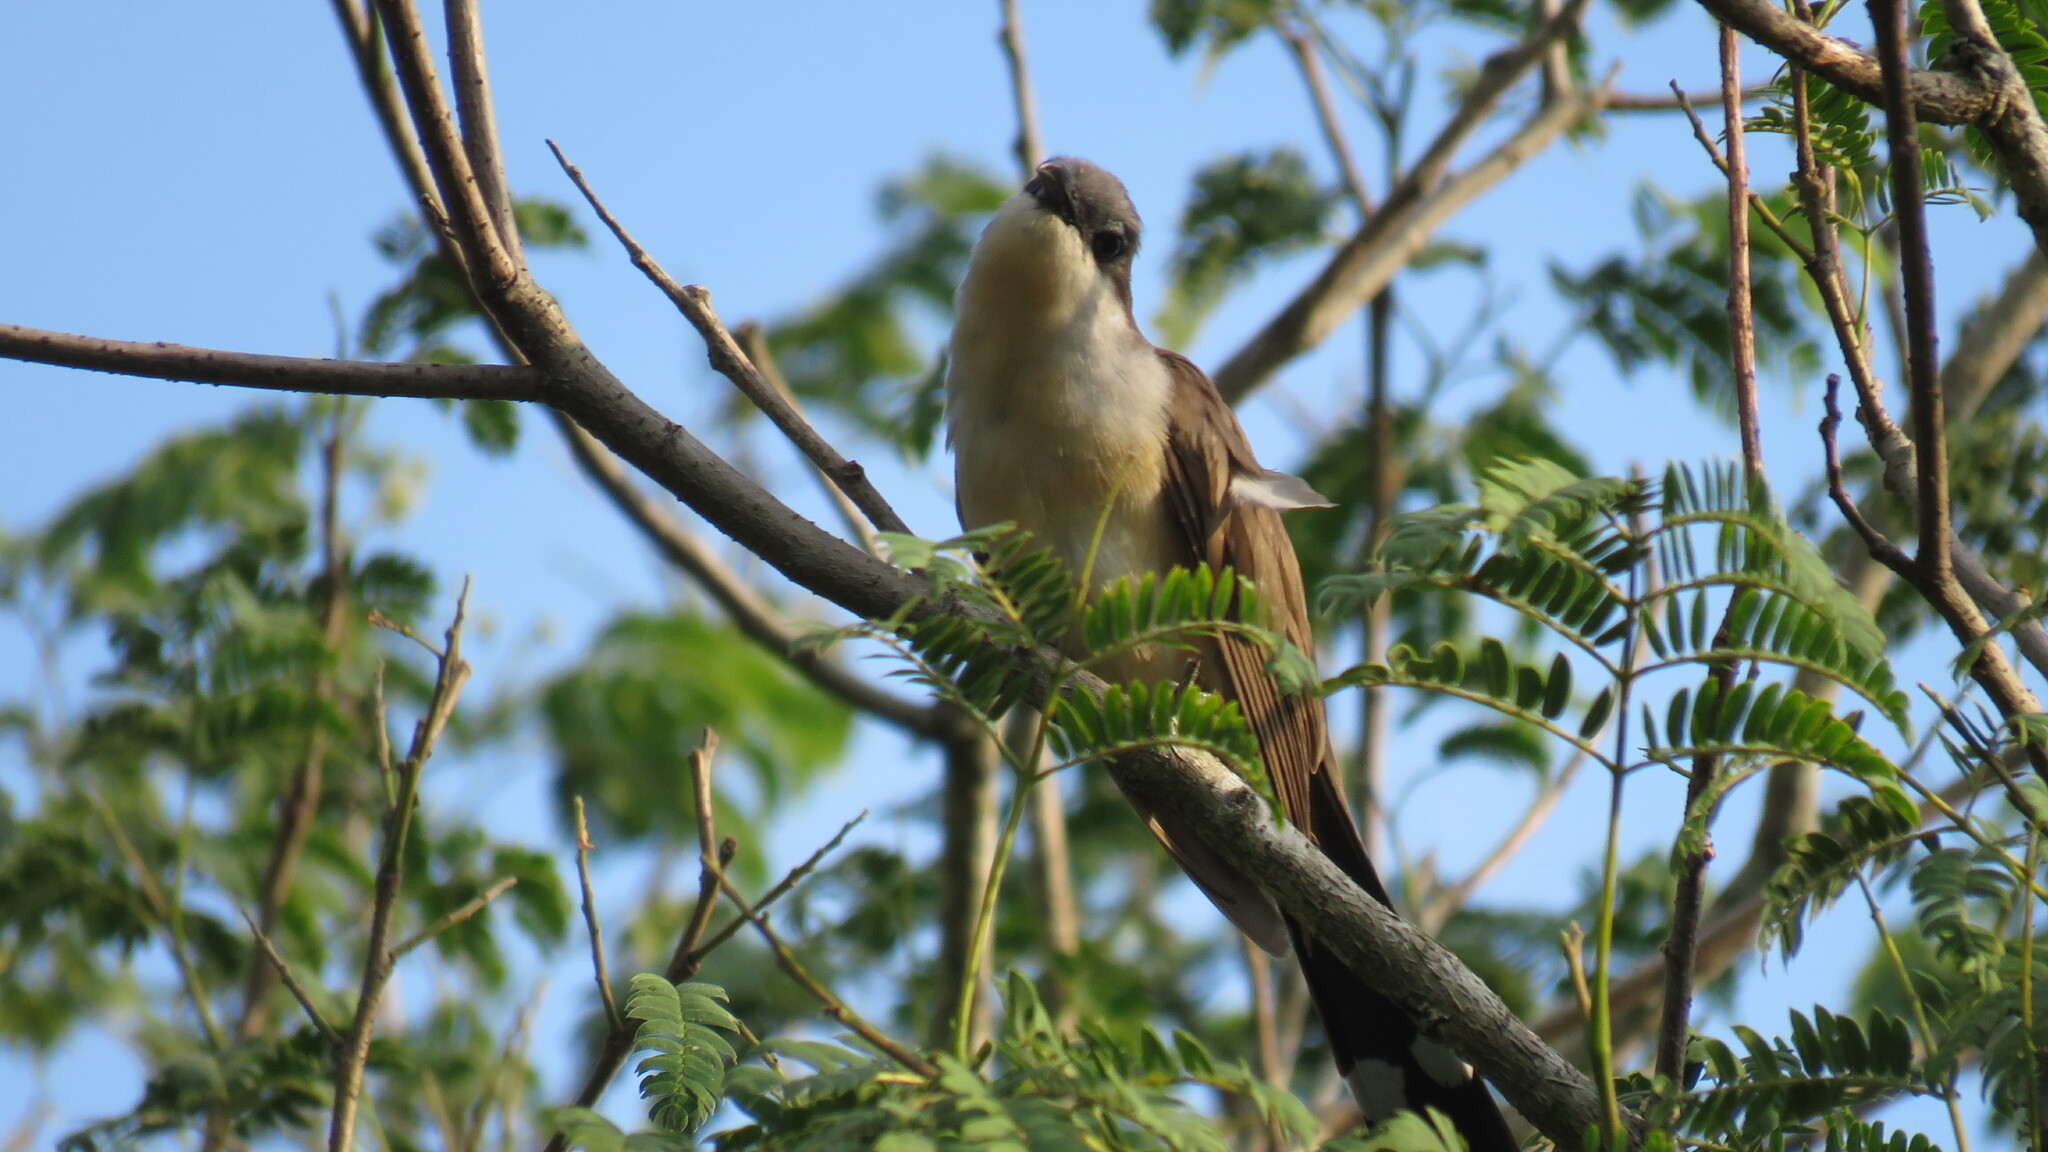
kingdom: Animalia
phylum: Chordata
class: Aves
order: Cuculiformes
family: Cuculidae
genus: Coccyzus
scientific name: Coccyzus melacoryphus
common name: Dark-billed cuckoo
